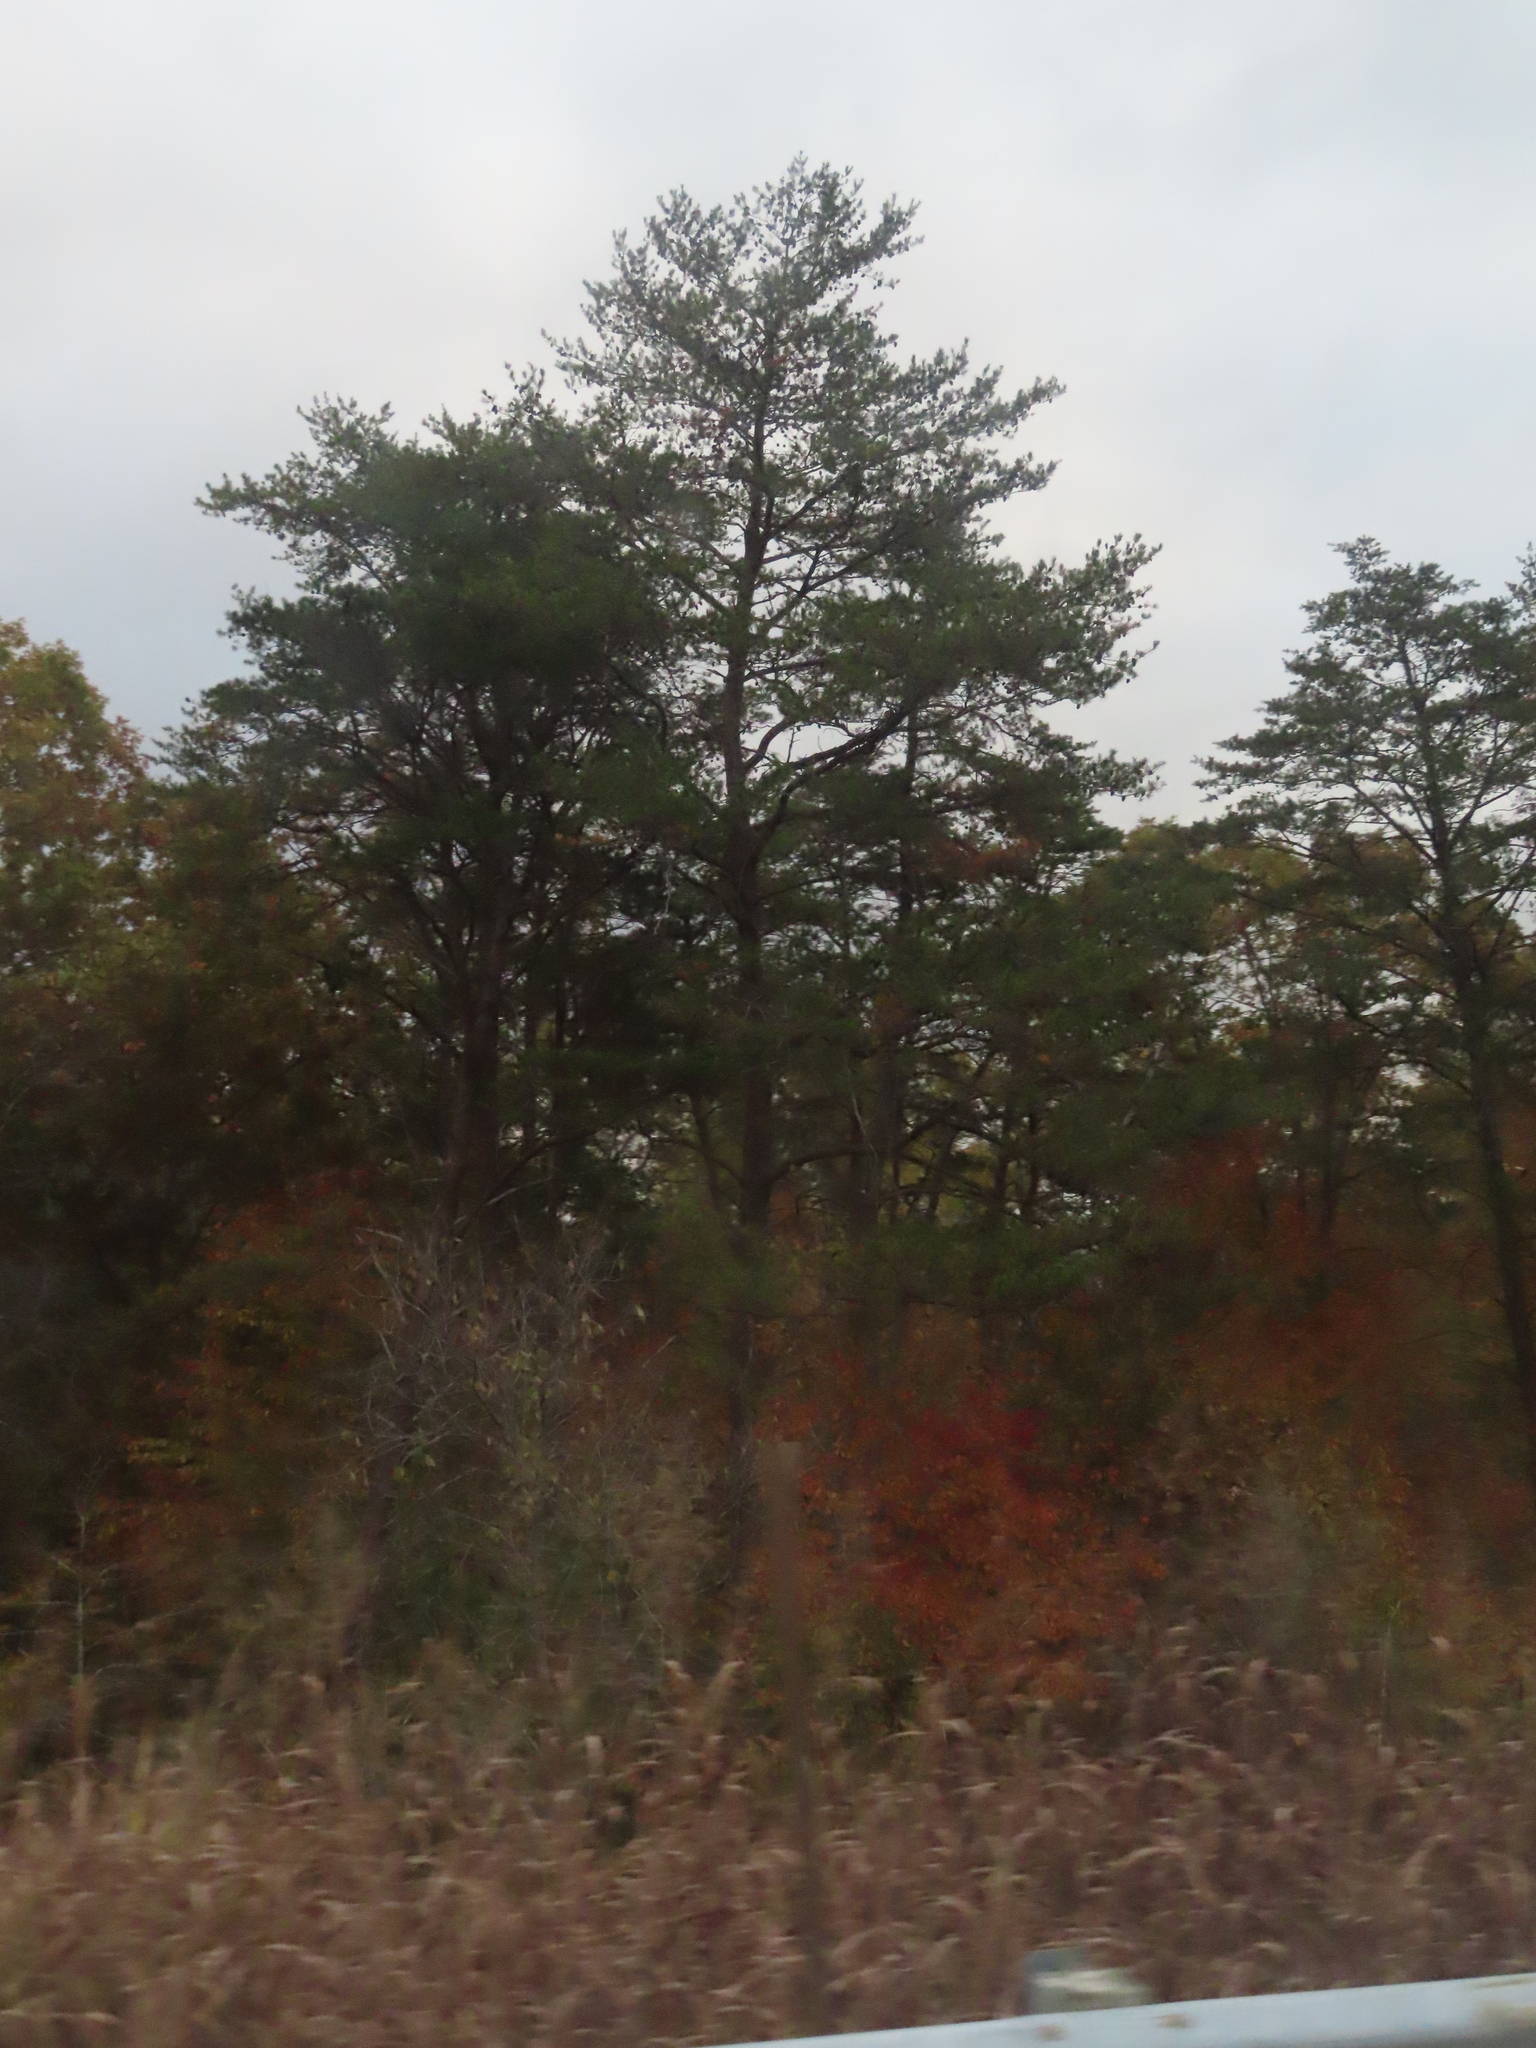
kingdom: Plantae
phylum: Tracheophyta
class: Pinopsida
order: Pinales
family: Pinaceae
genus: Pinus
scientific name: Pinus strobus
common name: Weymouth pine
